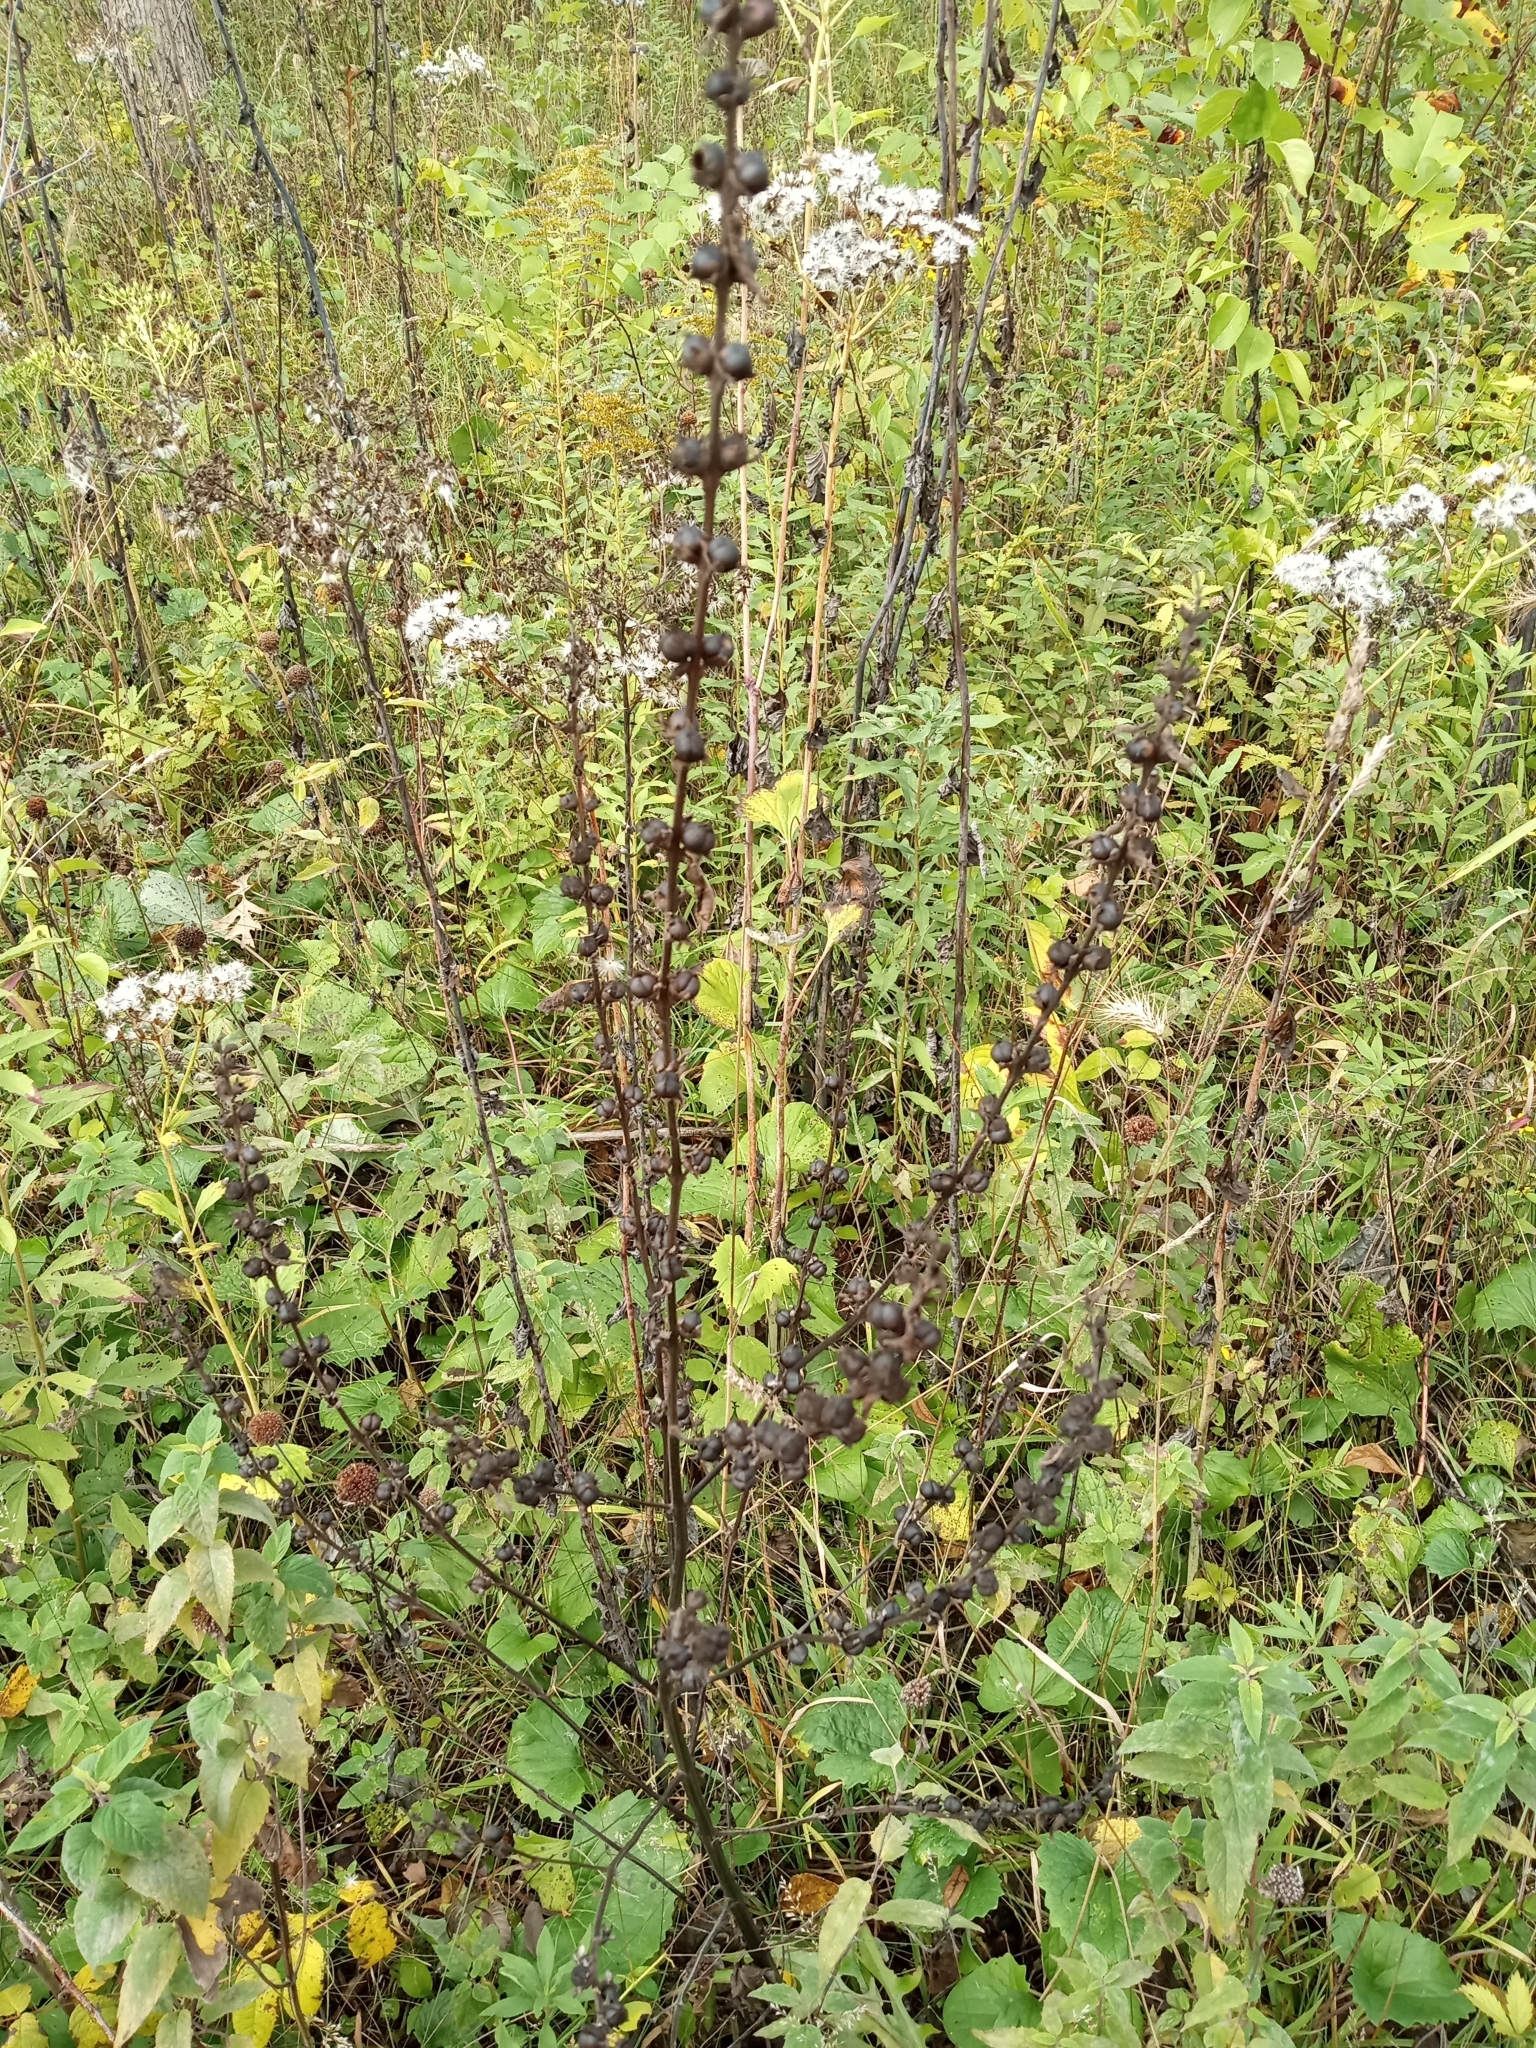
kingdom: Plantae
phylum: Tracheophyta
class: Magnoliopsida
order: Lamiales
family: Orobanchaceae
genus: Dasistoma
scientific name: Dasistoma macrophyllum
